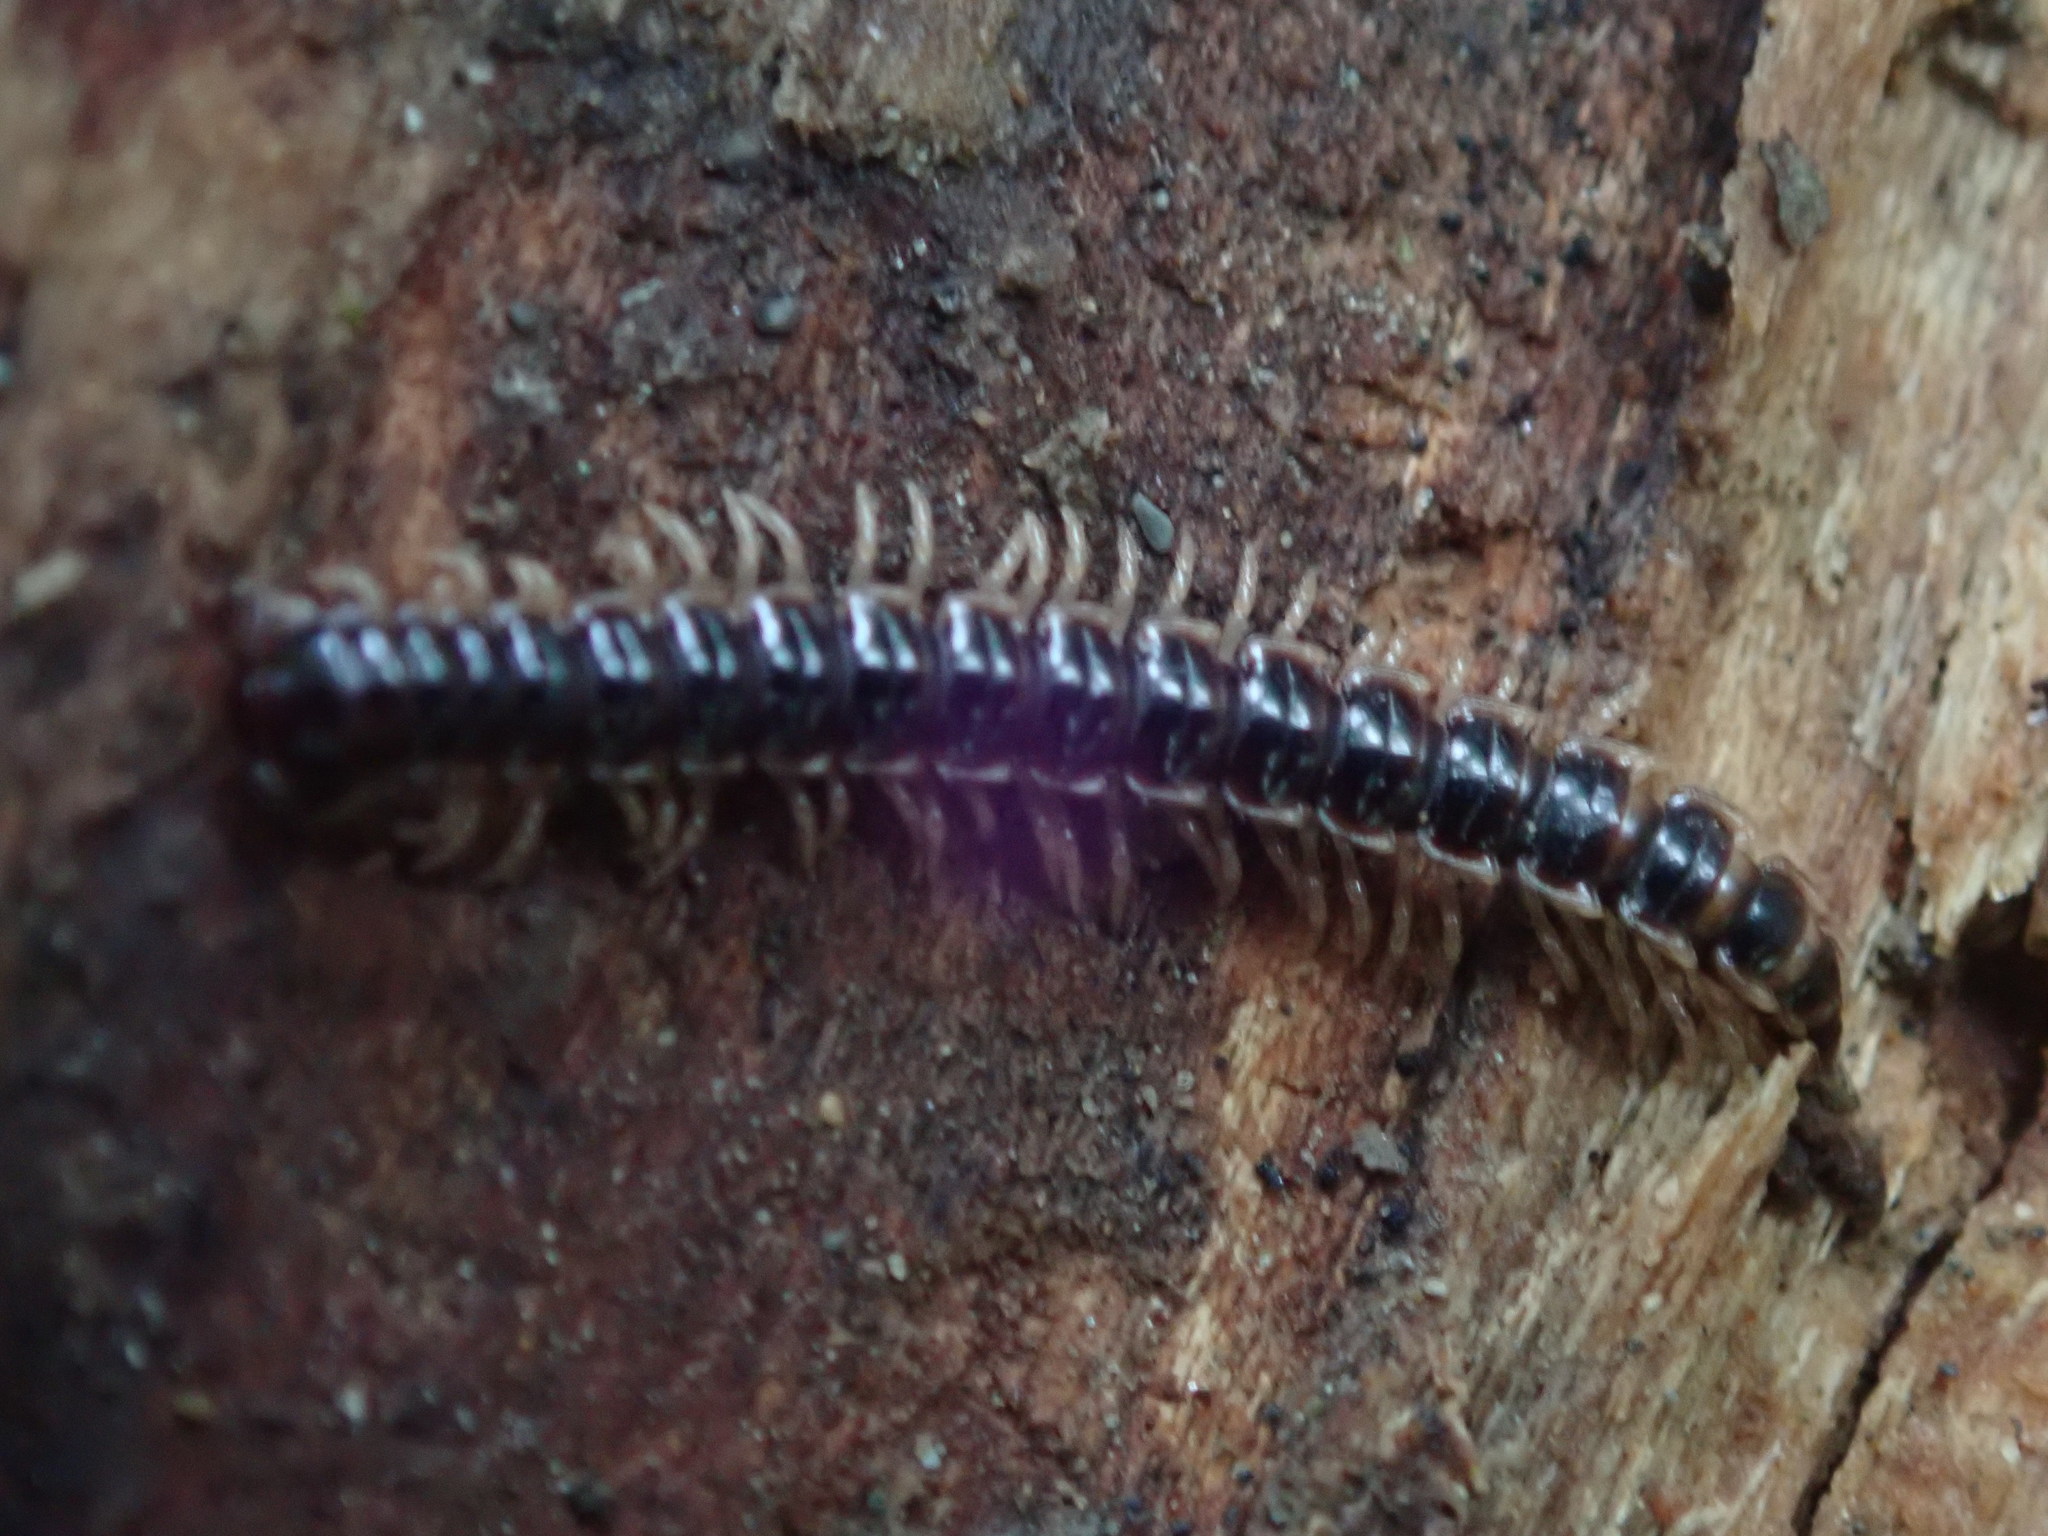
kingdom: Animalia
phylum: Arthropoda
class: Diplopoda
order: Polydesmida
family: Paradoxosomatidae
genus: Oxidus
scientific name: Oxidus gracilis
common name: Greenhouse millipede
